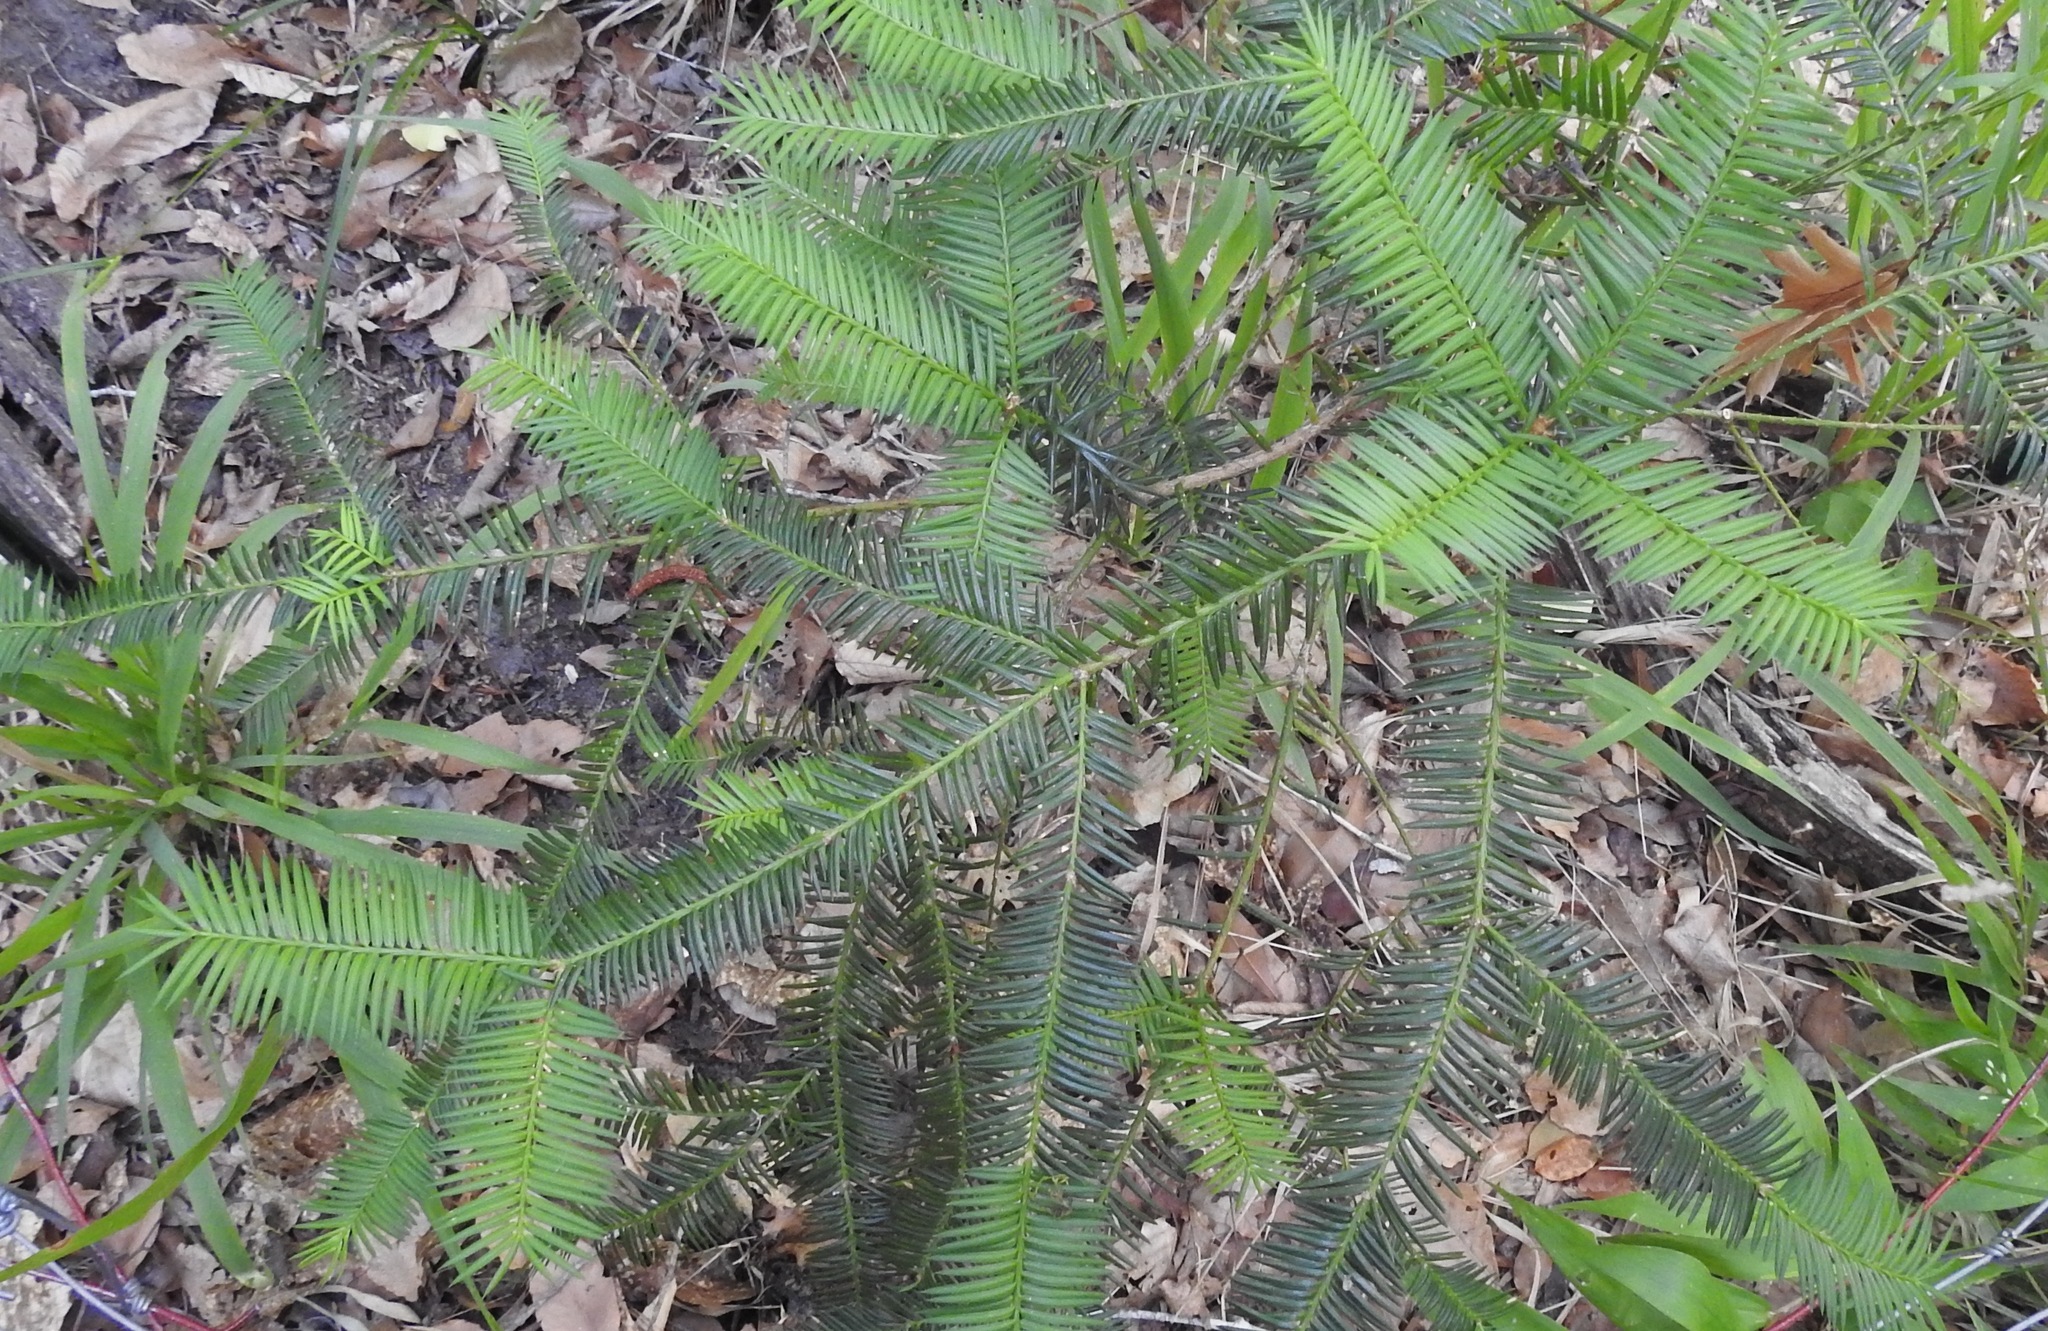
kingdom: Plantae
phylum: Tracheophyta
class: Pinopsida
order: Pinales
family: Taxaceae
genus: Torreya
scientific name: Torreya taxifolia
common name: Florida torreya
